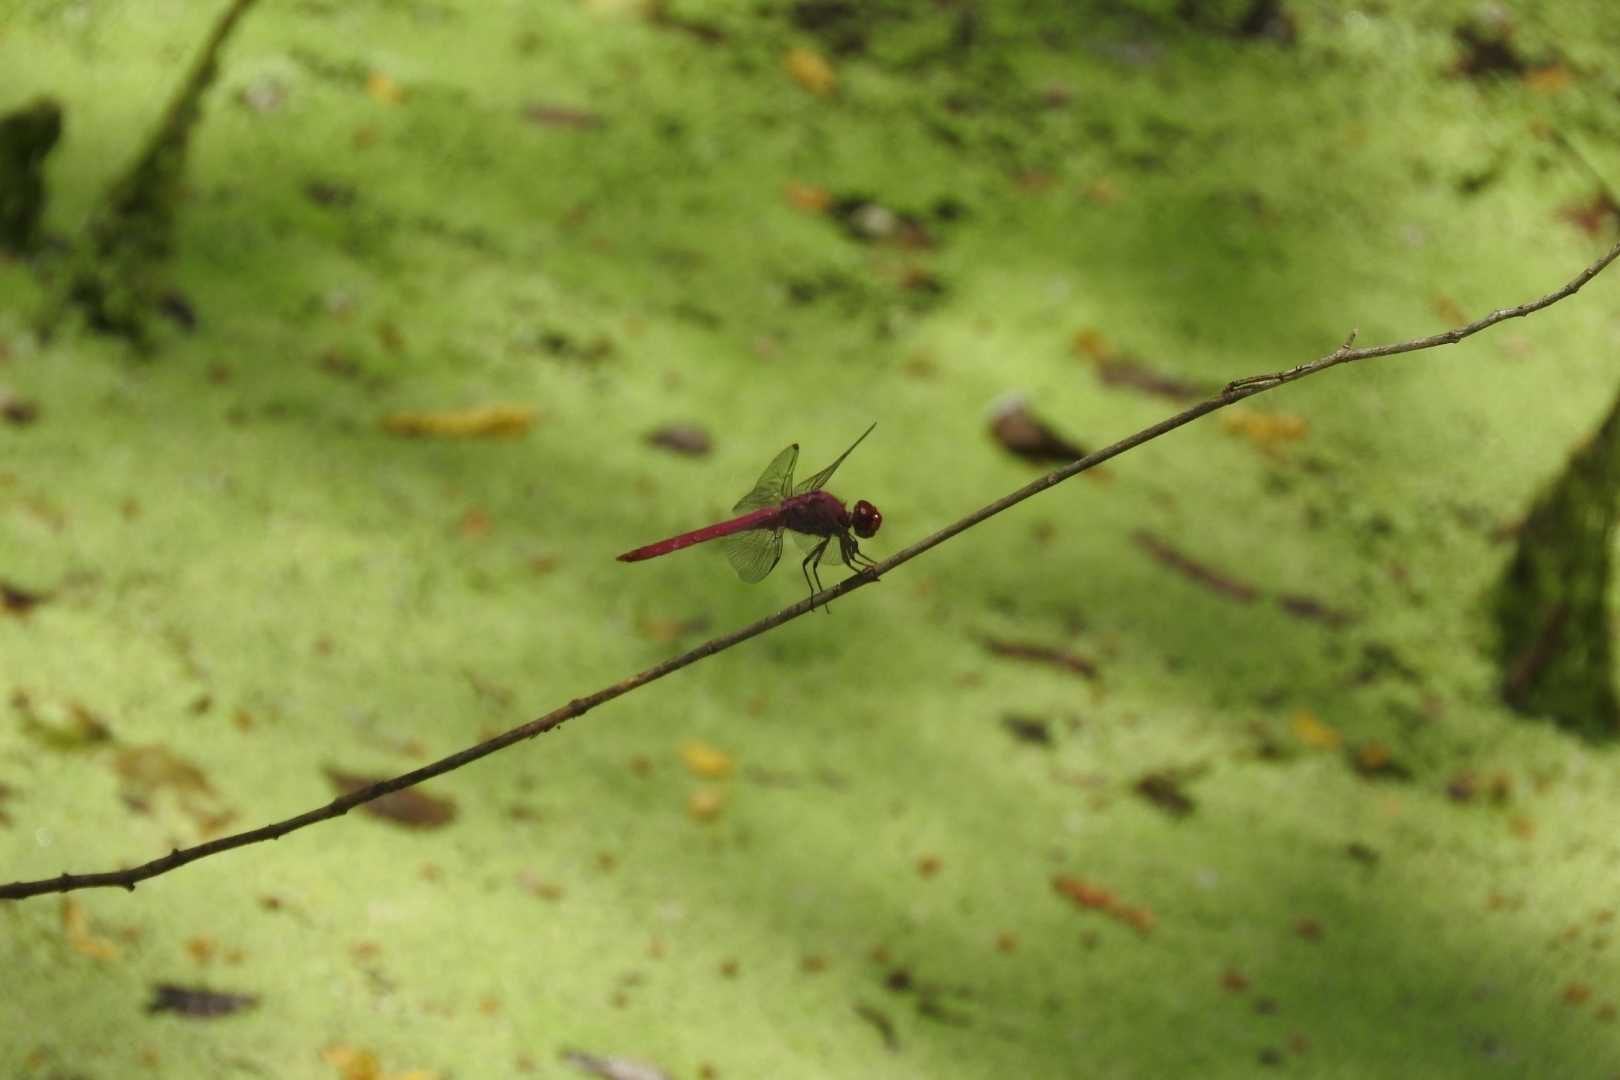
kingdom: Animalia
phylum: Arthropoda
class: Insecta
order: Odonata
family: Libellulidae
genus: Orthemis
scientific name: Orthemis discolor
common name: Carmine skimmer
